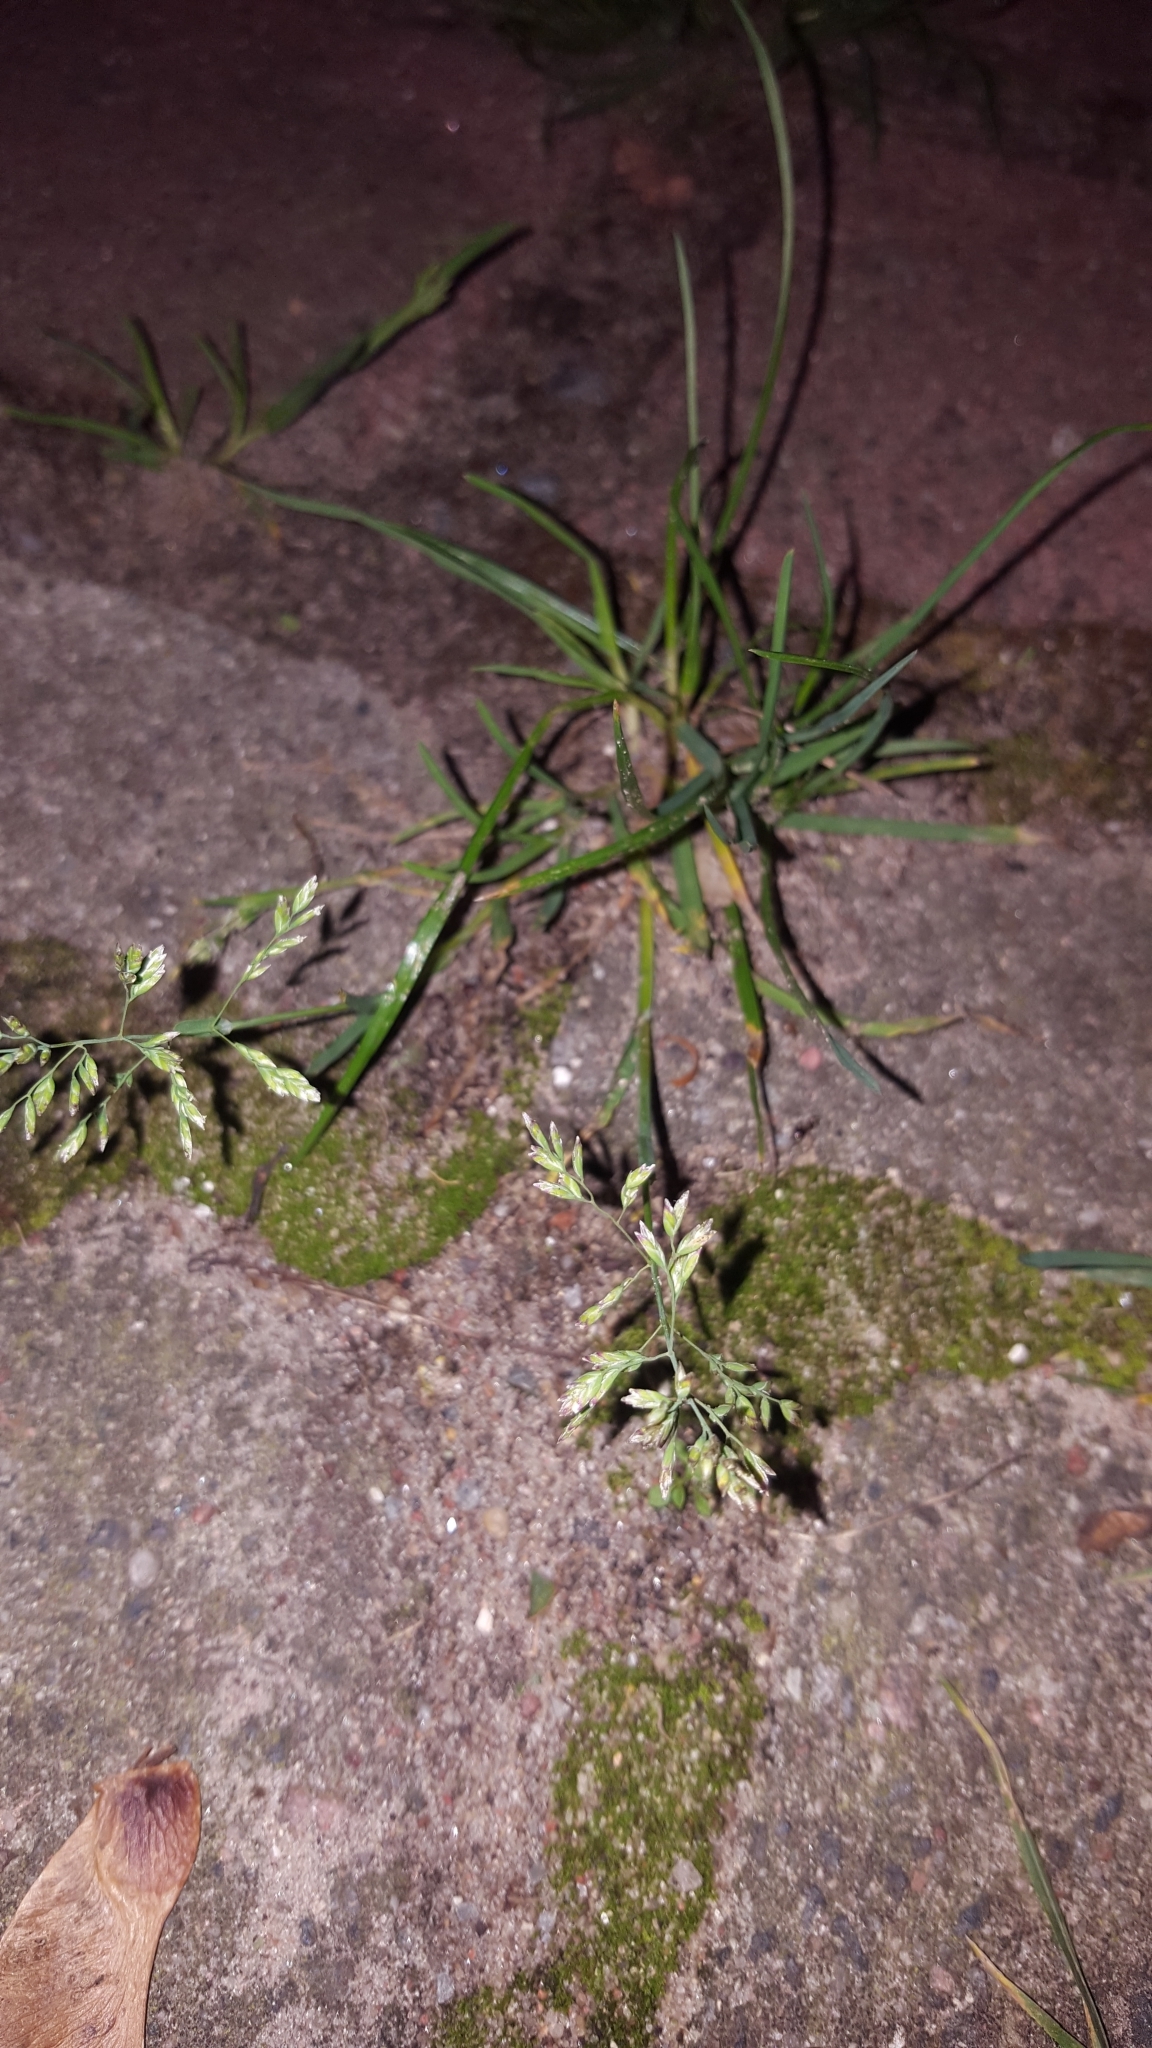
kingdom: Plantae
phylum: Tracheophyta
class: Liliopsida
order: Poales
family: Poaceae
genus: Poa
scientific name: Poa annua
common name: Annual bluegrass
